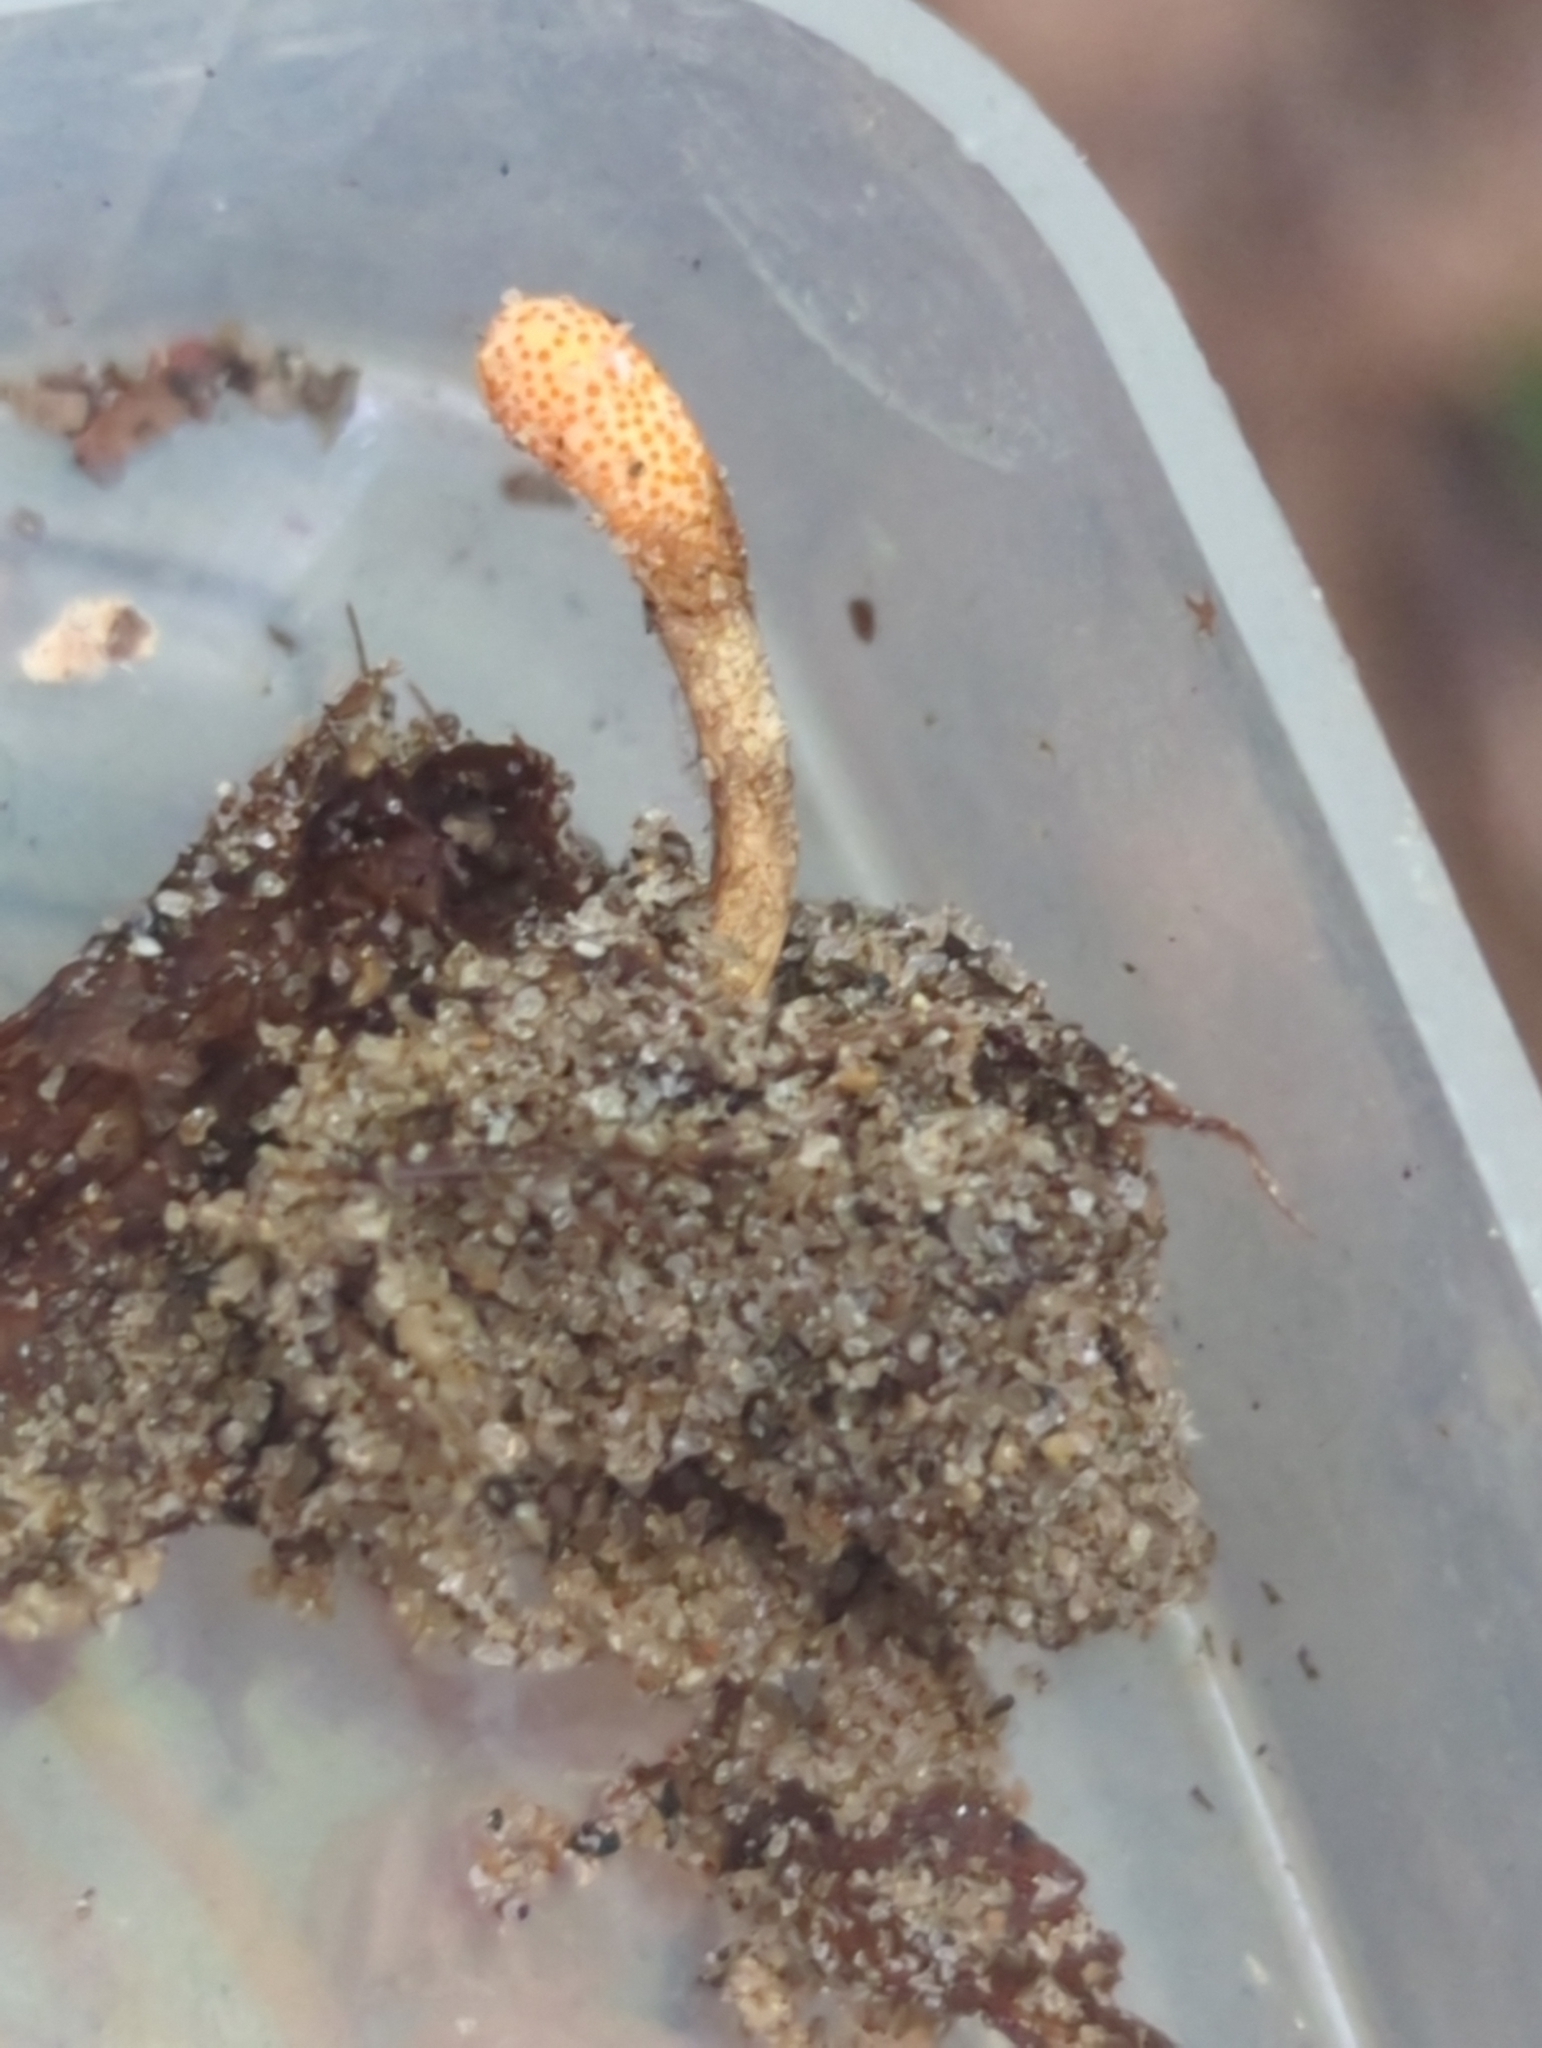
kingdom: Fungi
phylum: Ascomycota
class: Sordariomycetes
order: Hypocreales
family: Cordycipitaceae
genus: Cordyceps
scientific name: Cordyceps militaris
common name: Scarlet caterpillar fungus
